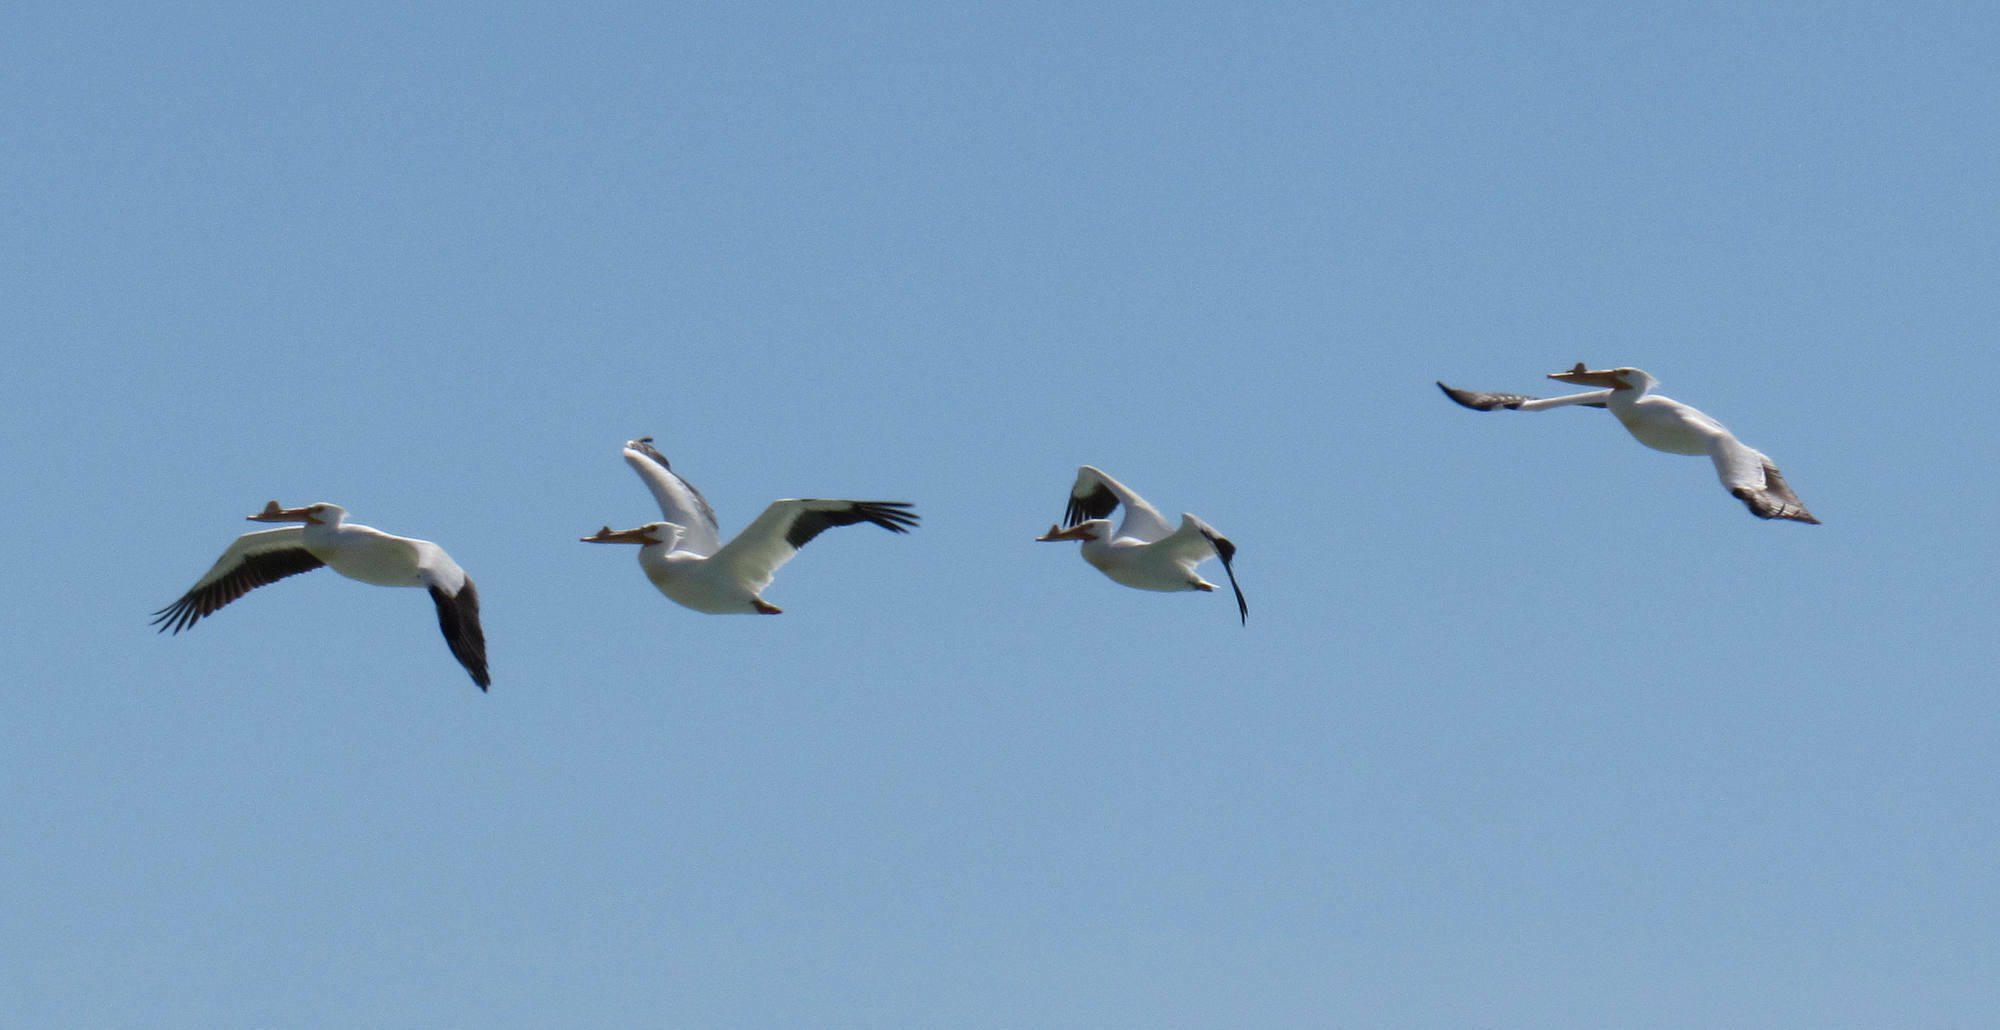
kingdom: Animalia
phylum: Chordata
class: Aves
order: Pelecaniformes
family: Pelecanidae
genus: Pelecanus
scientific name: Pelecanus erythrorhynchos
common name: American white pelican
